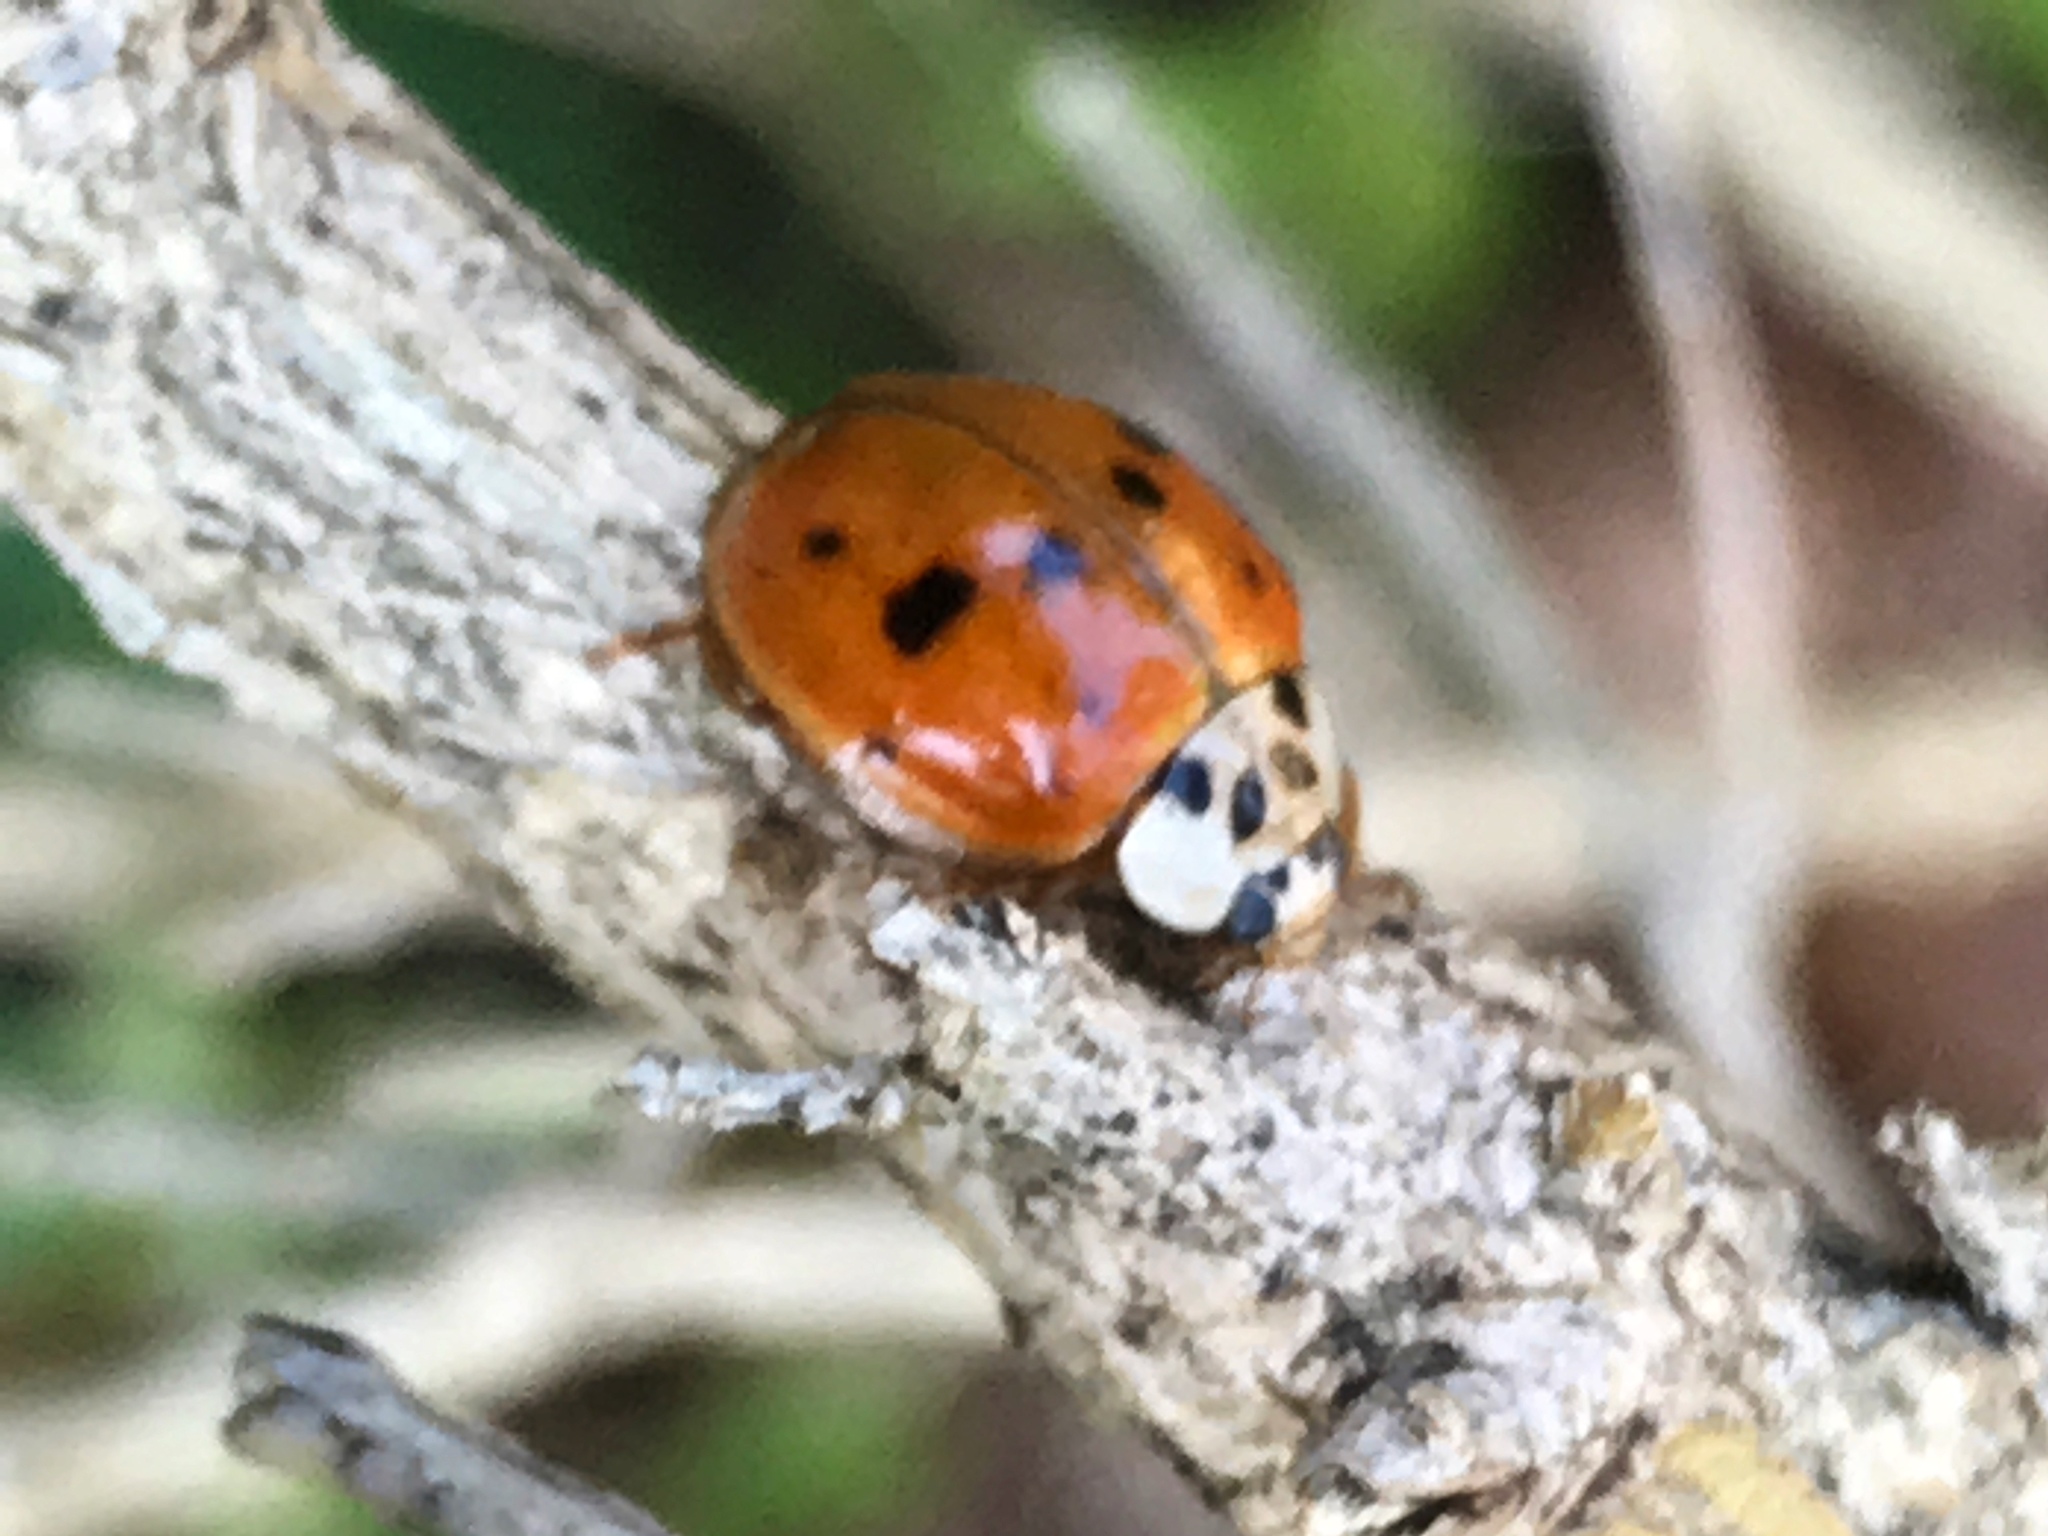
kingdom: Animalia
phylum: Arthropoda
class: Insecta
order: Coleoptera
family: Coccinellidae
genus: Harmonia
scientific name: Harmonia axyridis
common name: Harlequin ladybird
